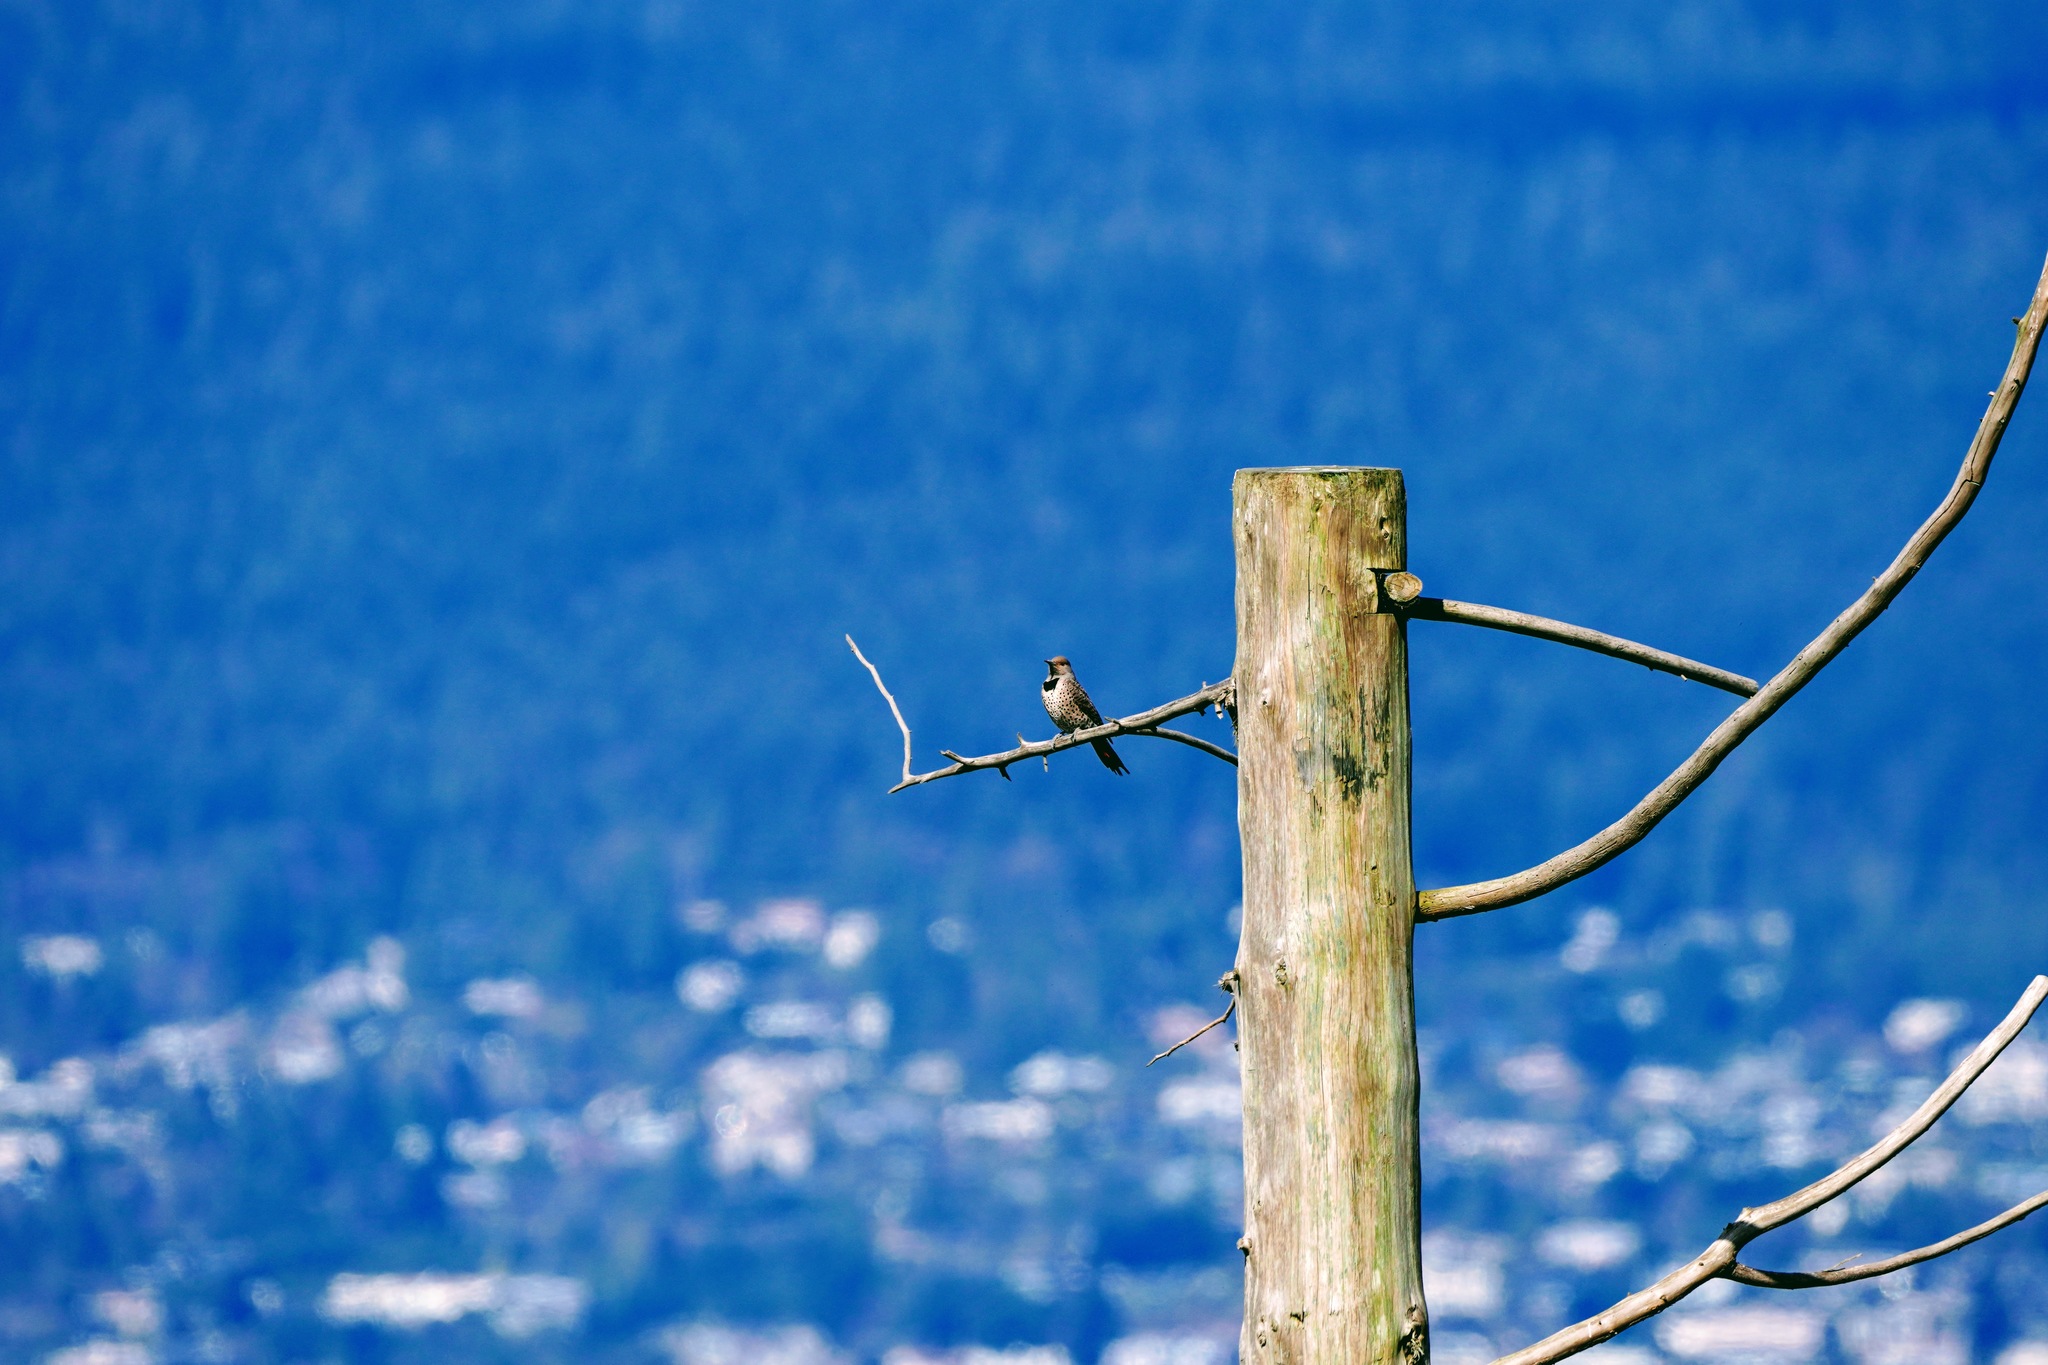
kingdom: Animalia
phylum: Chordata
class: Aves
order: Piciformes
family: Picidae
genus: Colaptes
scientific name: Colaptes auratus
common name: Northern flicker
